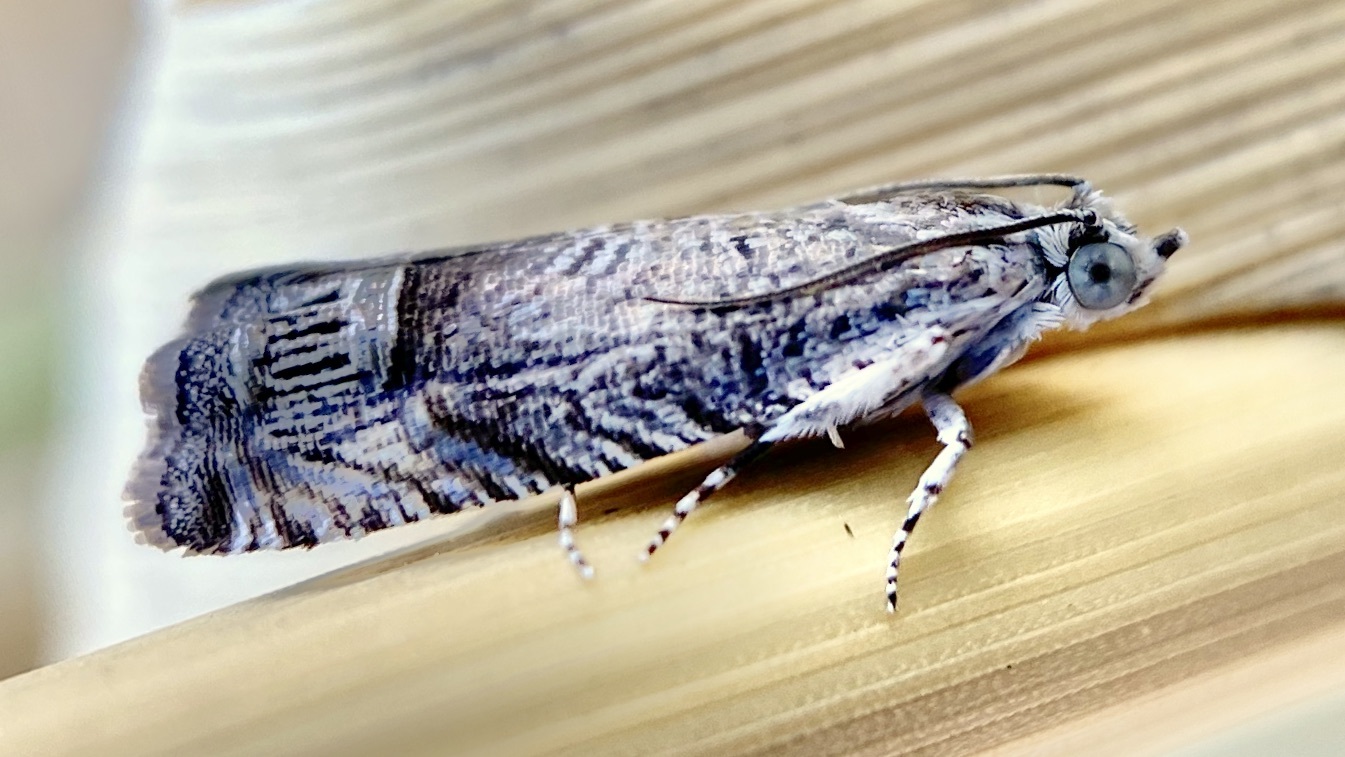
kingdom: Animalia
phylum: Arthropoda
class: Insecta
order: Lepidoptera
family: Tortricidae
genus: Ofatulena
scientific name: Ofatulena duodecemstriata
